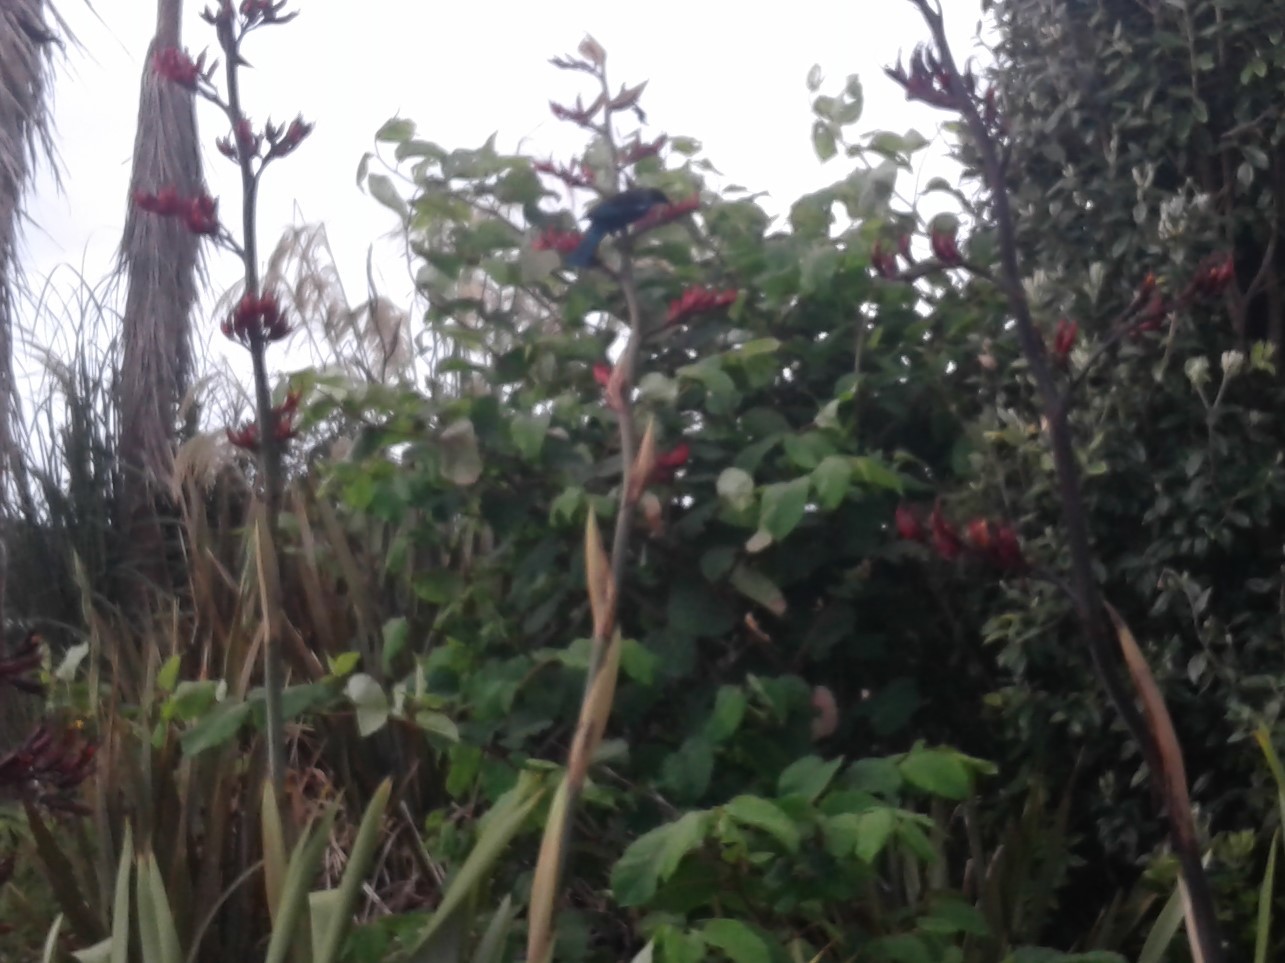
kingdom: Animalia
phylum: Chordata
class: Aves
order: Passeriformes
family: Meliphagidae
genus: Prosthemadera
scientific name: Prosthemadera novaeseelandiae
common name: Tui
